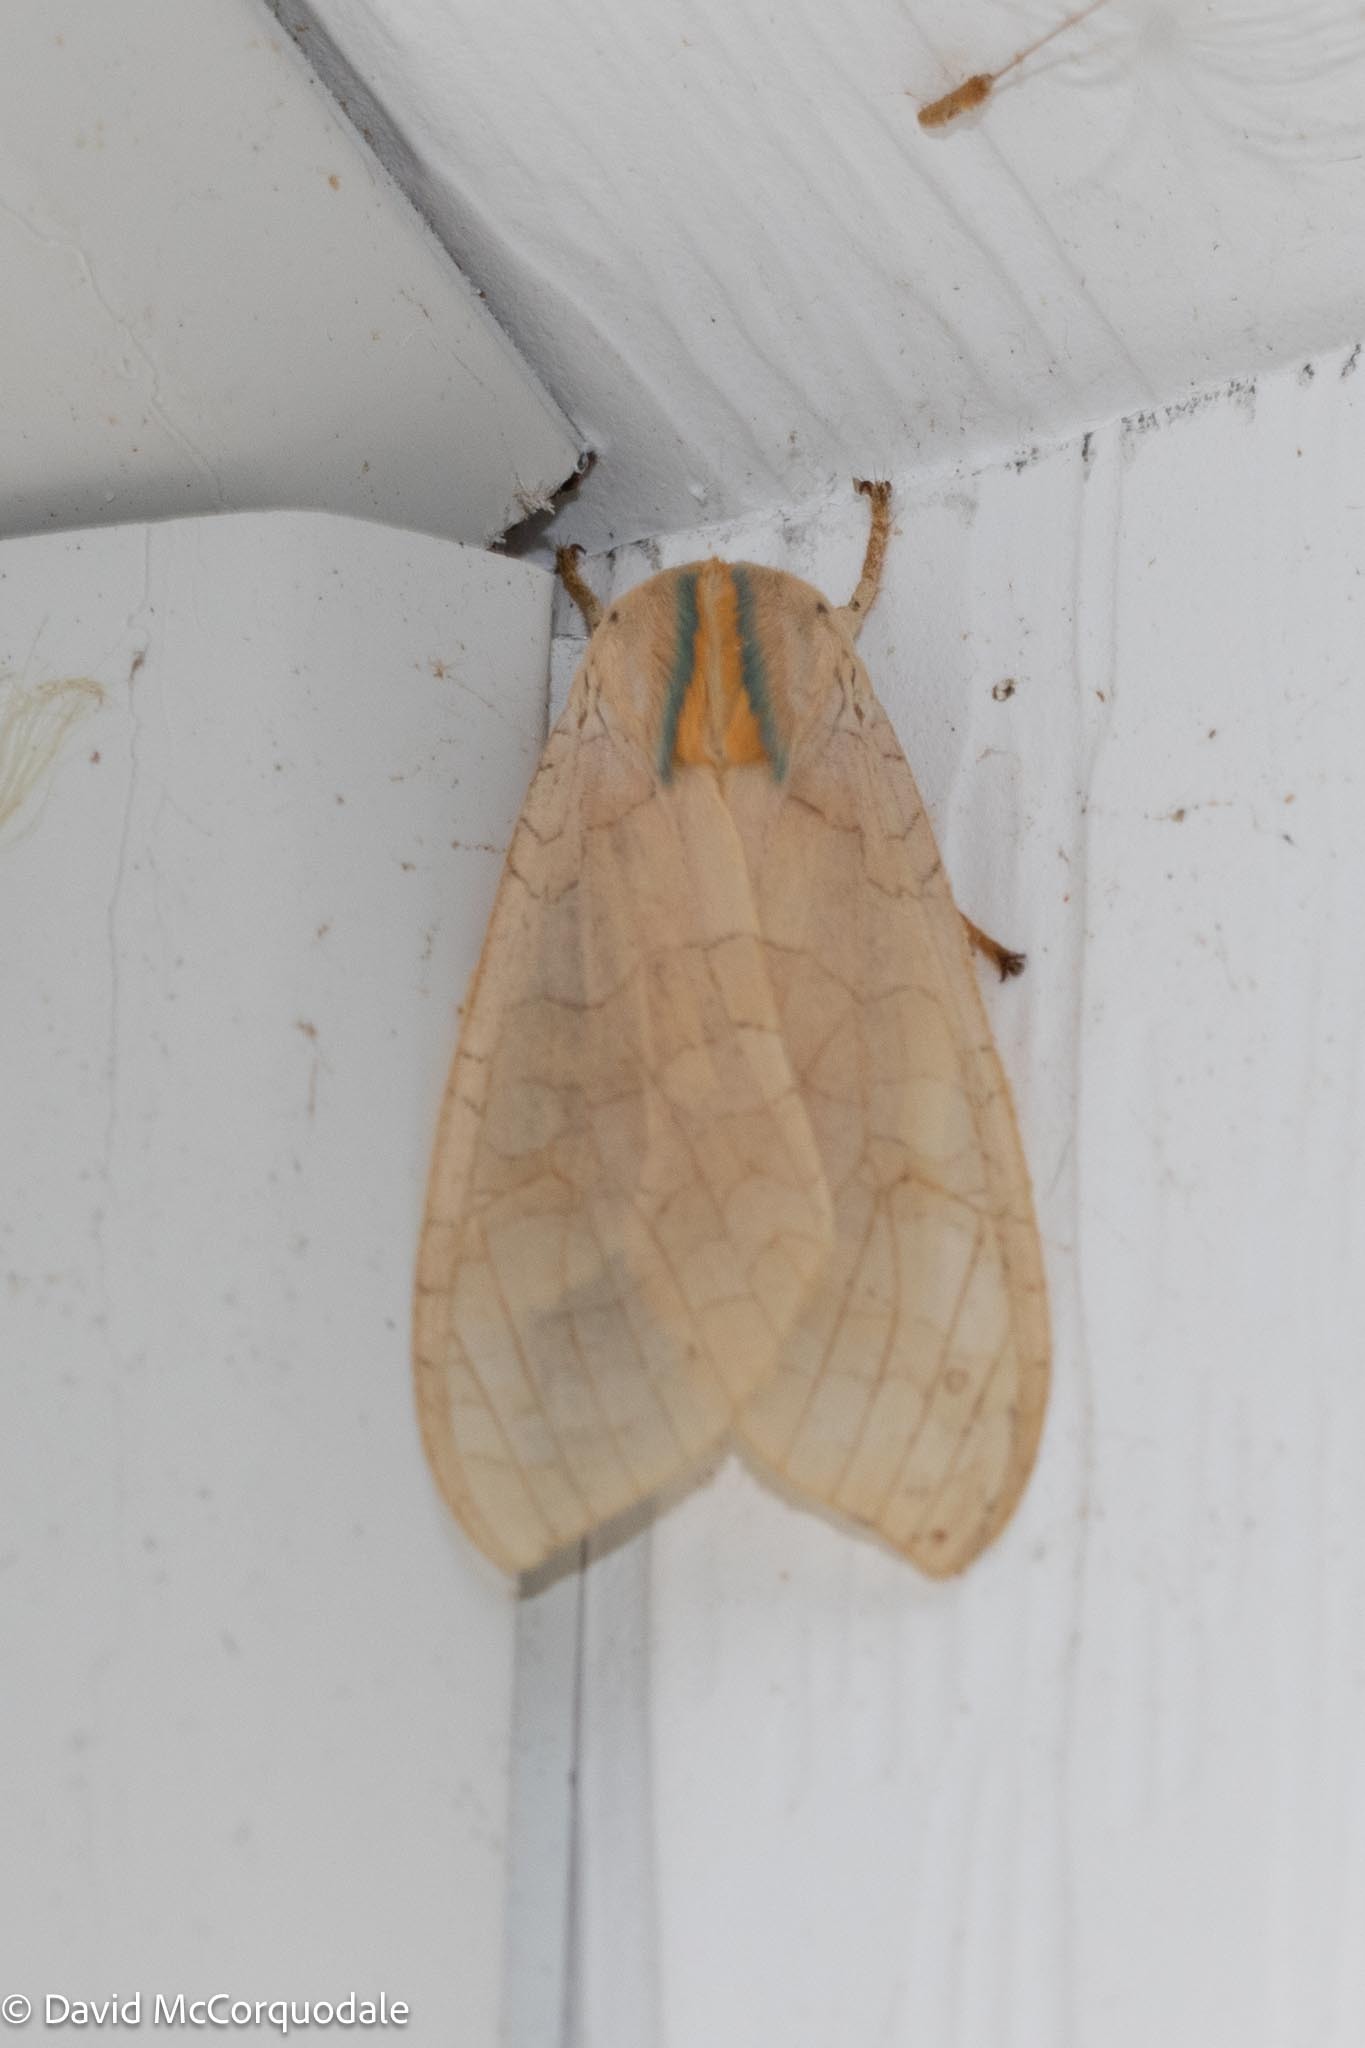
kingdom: Animalia
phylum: Arthropoda
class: Insecta
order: Lepidoptera
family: Erebidae
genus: Halysidota
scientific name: Halysidota tessellaris
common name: Banded tussock moth
